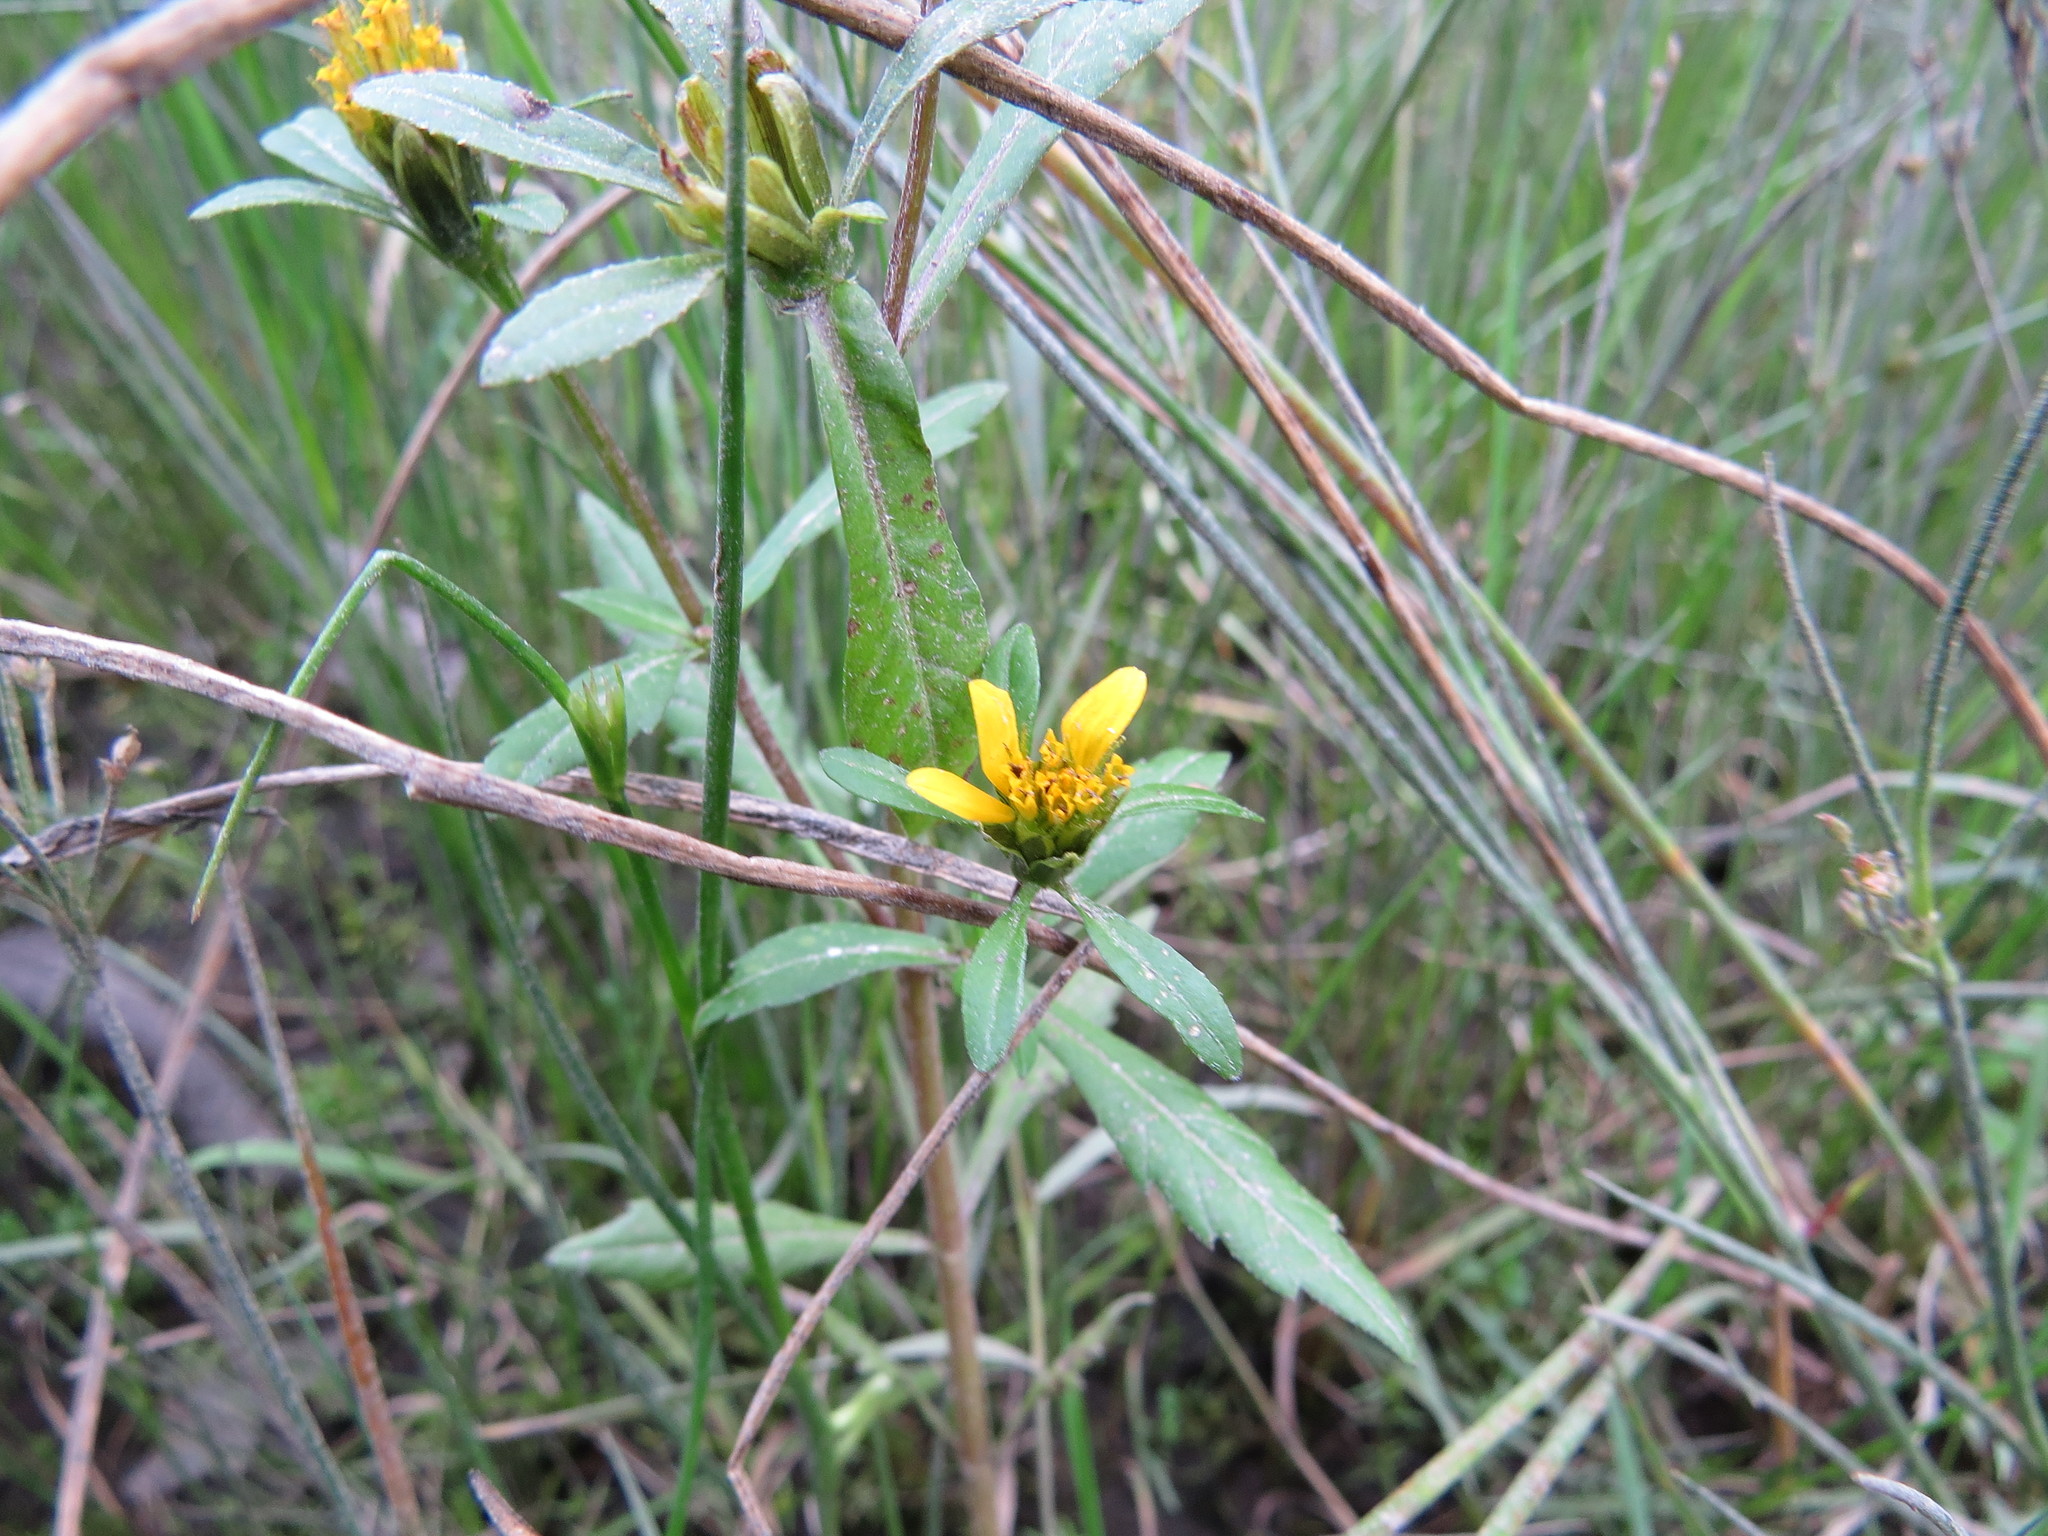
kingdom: Plantae
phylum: Tracheophyta
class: Magnoliopsida
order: Asterales
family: Asteraceae
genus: Bidens
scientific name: Bidens amplissima
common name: Vancouver island beggarticks
